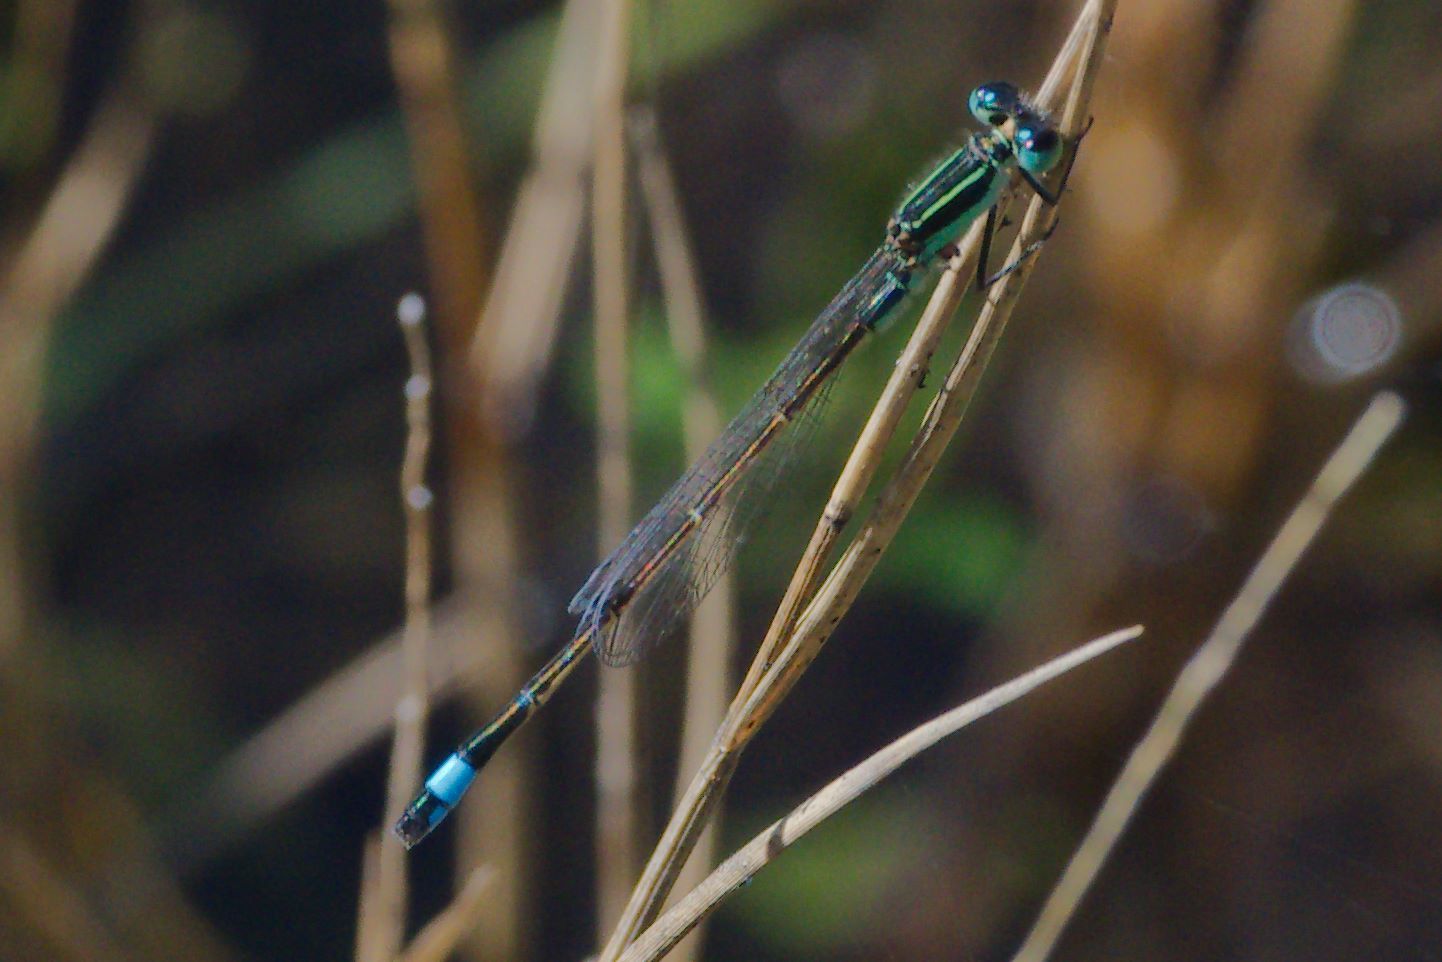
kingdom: Animalia
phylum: Arthropoda
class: Insecta
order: Odonata
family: Coenagrionidae
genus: Ischnura
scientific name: Ischnura ramburii
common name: Rambur's forktail
